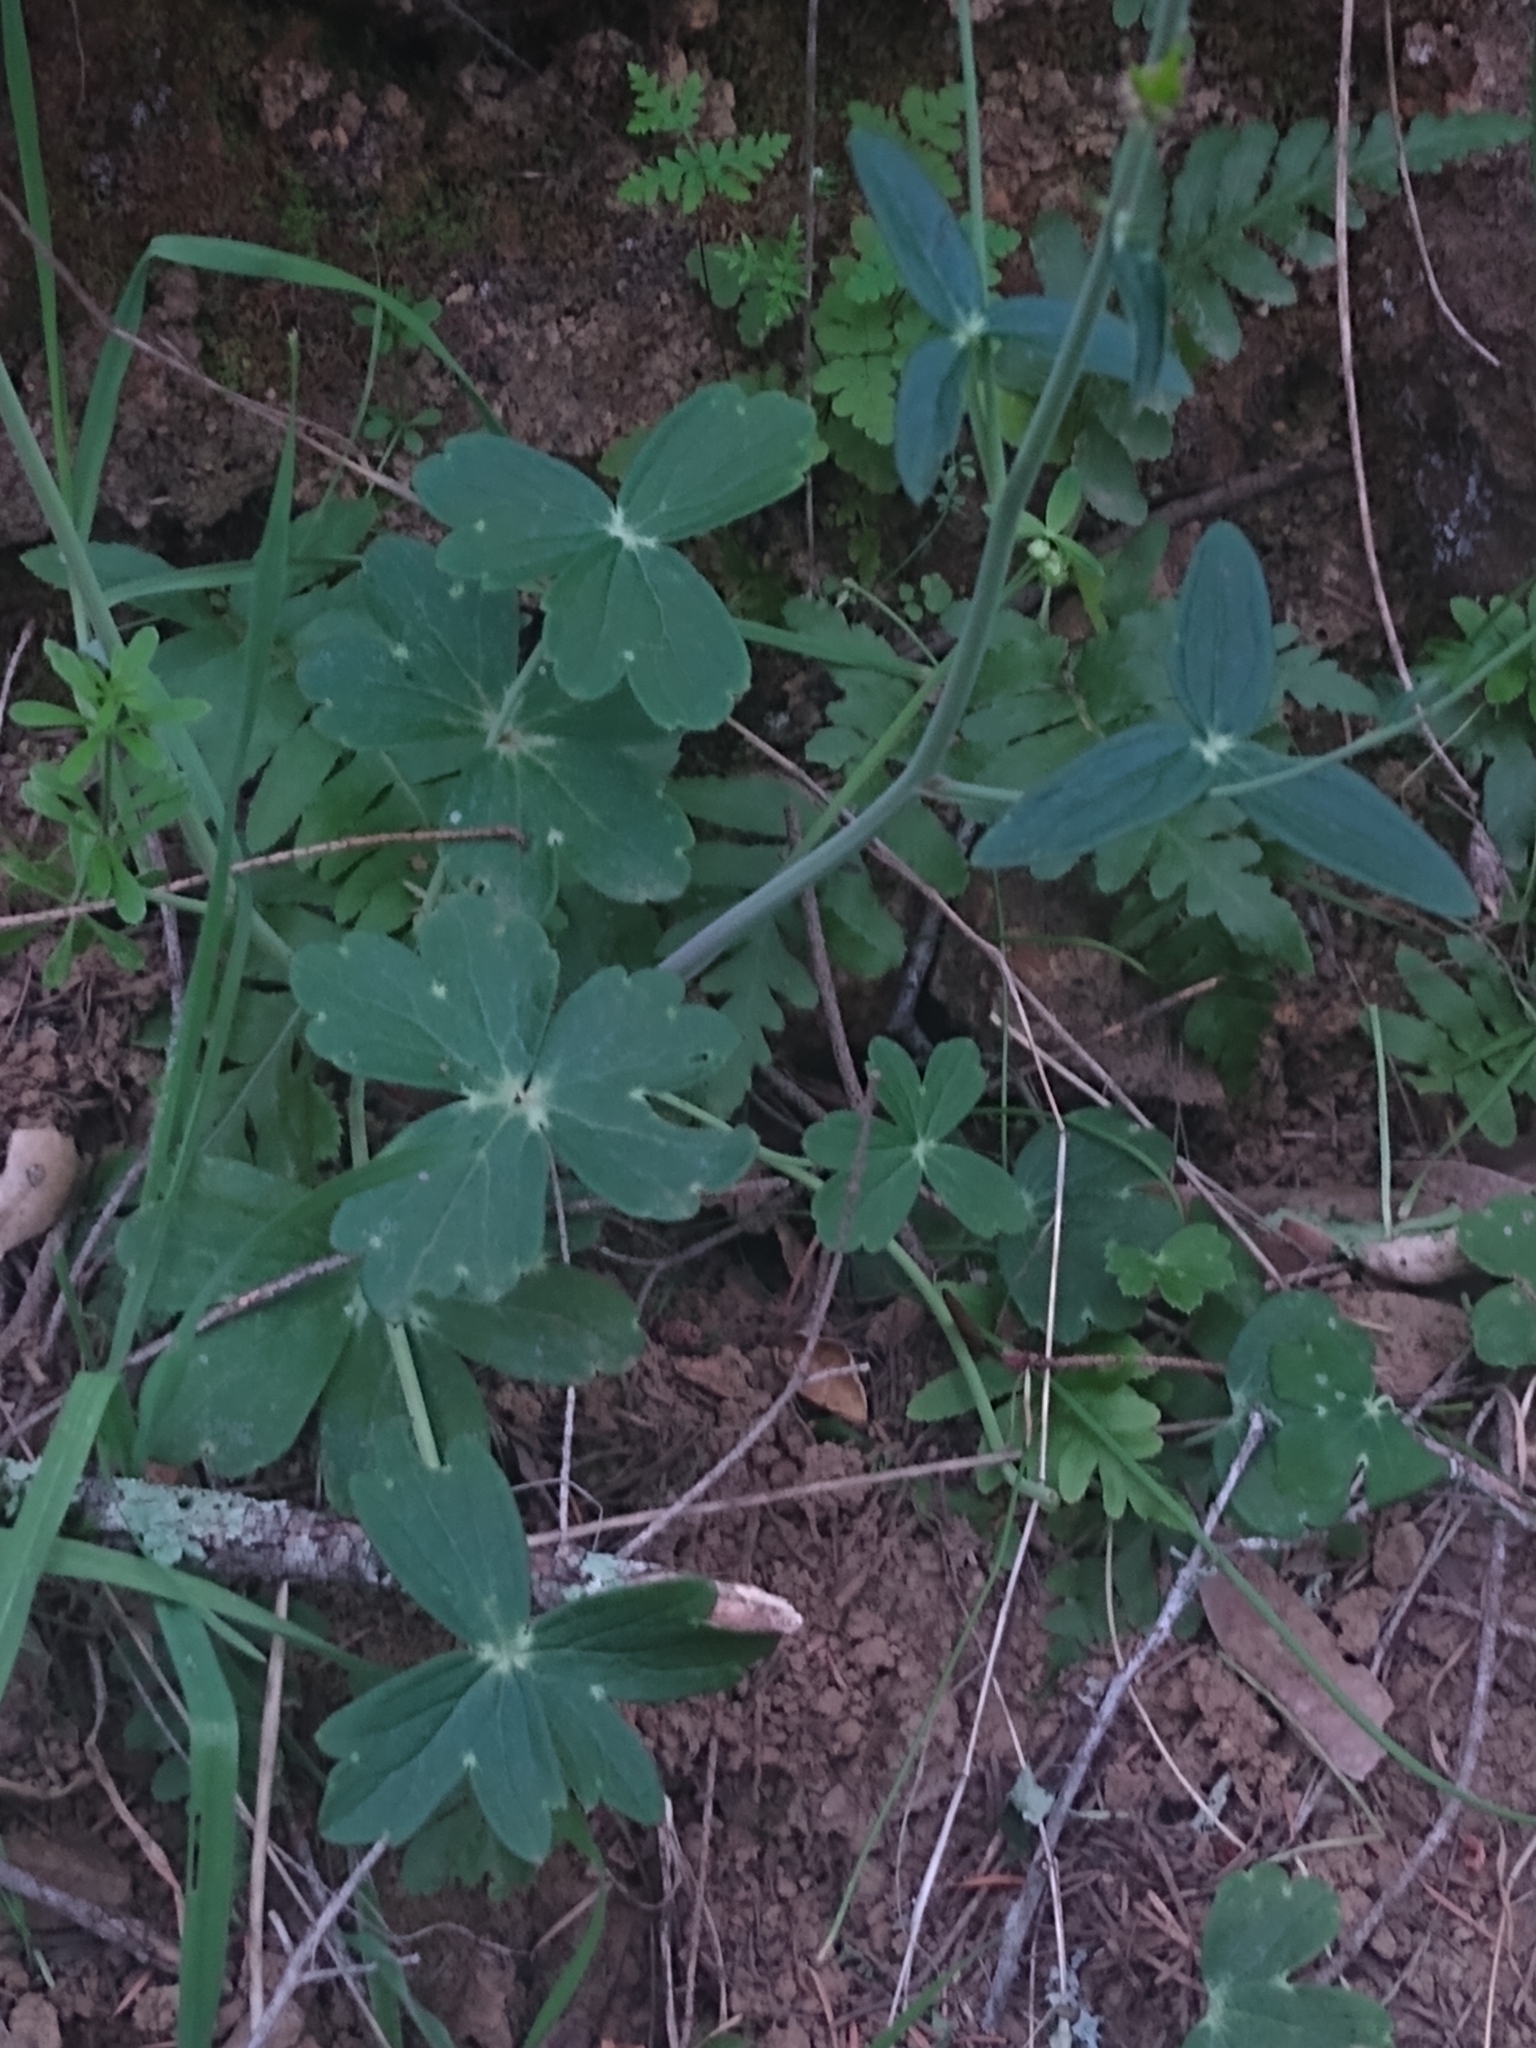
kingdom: Plantae
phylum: Tracheophyta
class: Magnoliopsida
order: Ranunculales
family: Ranunculaceae
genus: Delphinium
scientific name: Delphinium nudicaule
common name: Red larkspur
